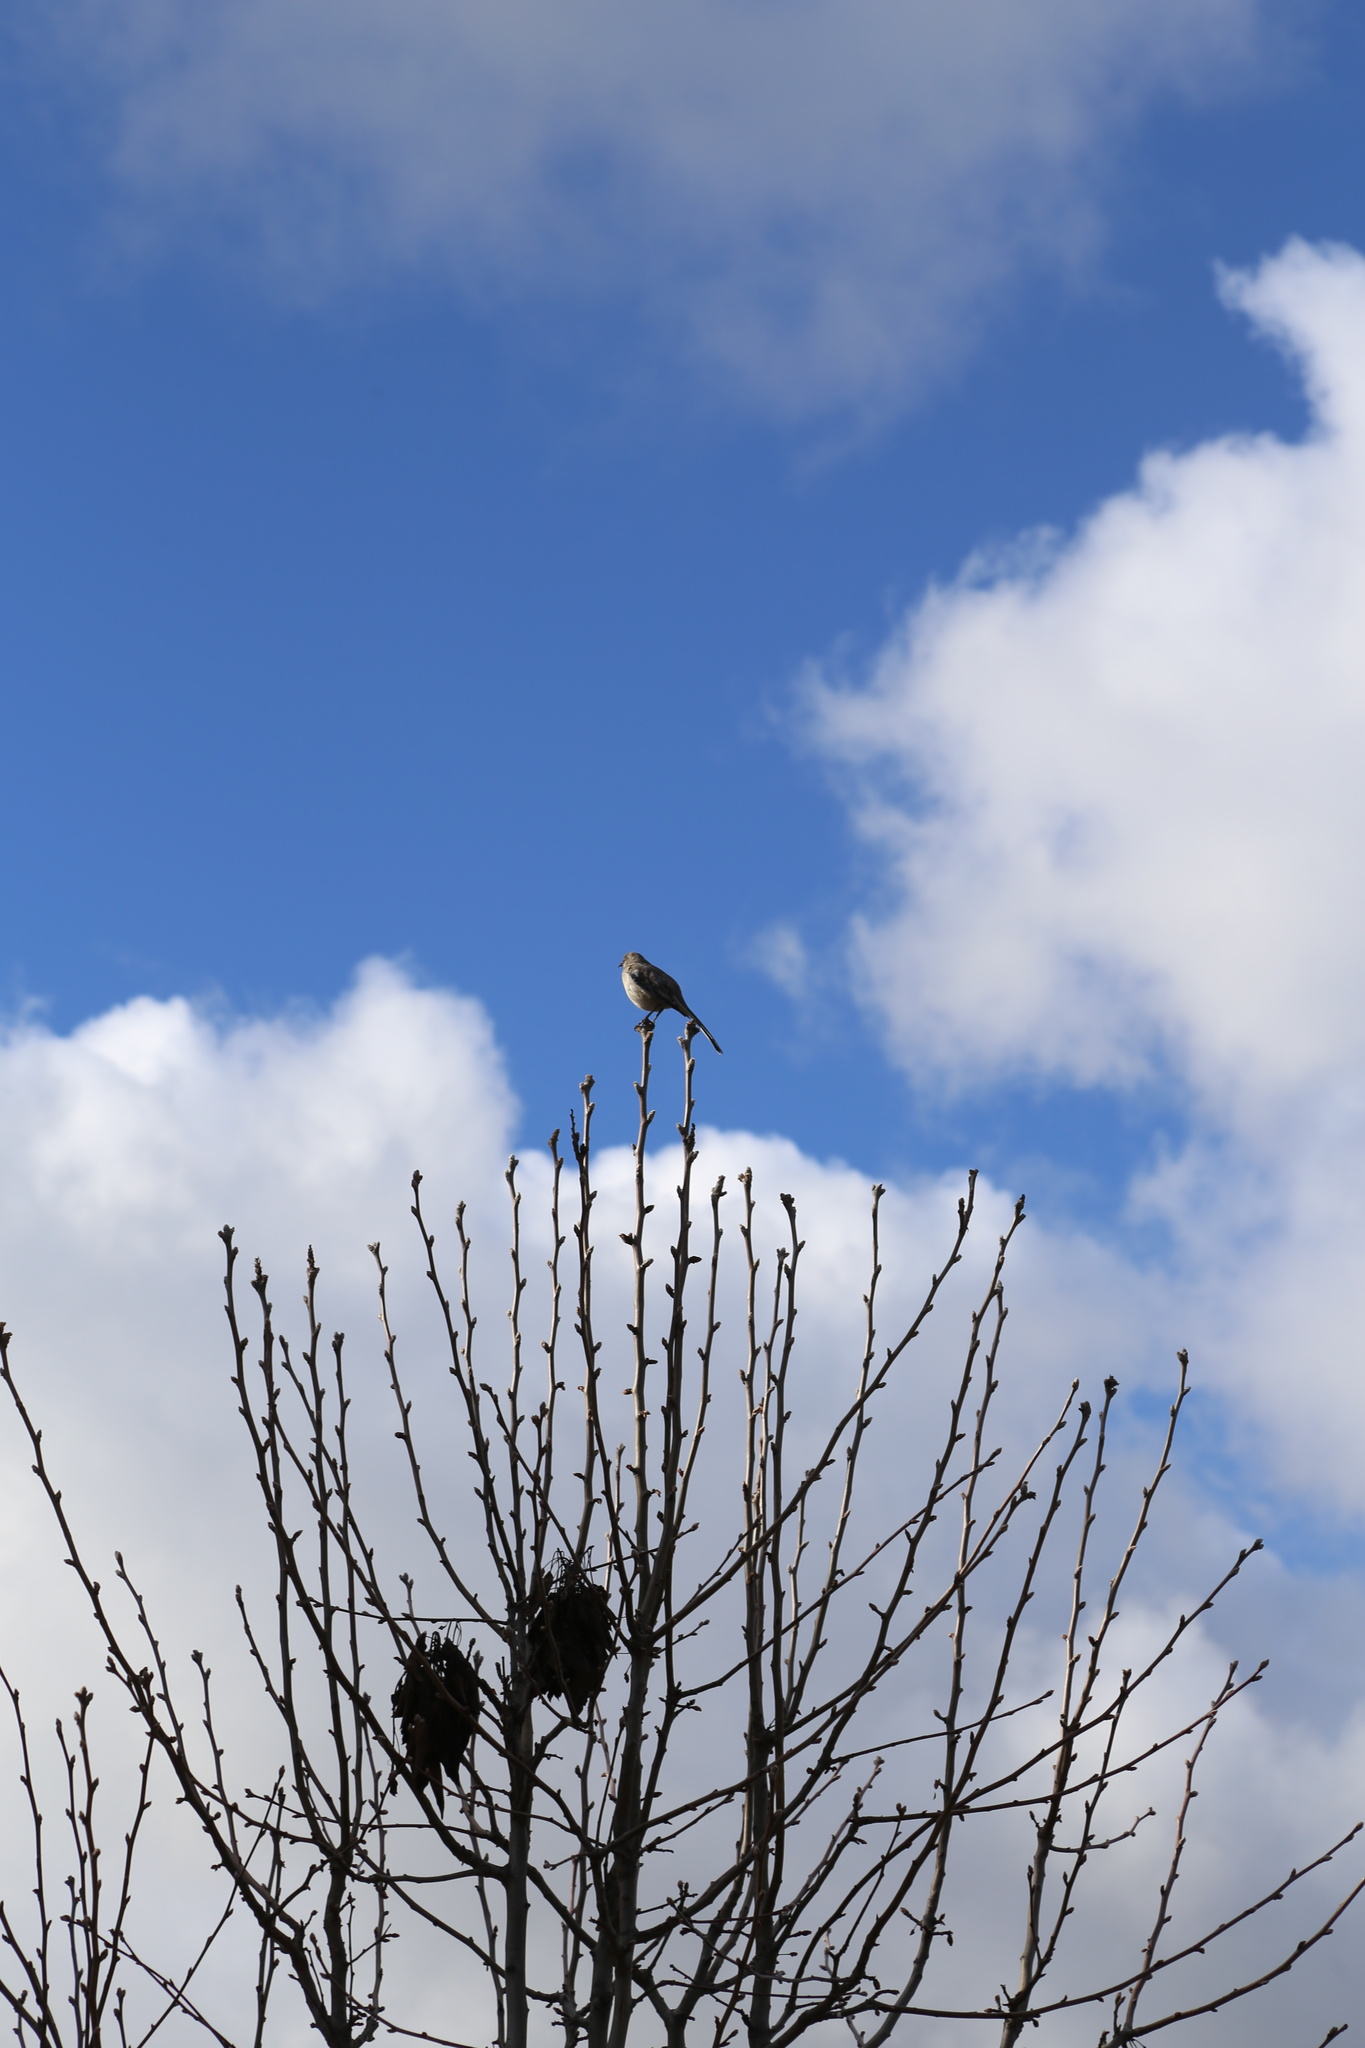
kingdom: Animalia
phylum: Chordata
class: Aves
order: Passeriformes
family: Passerellidae
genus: Zonotrichia
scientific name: Zonotrichia leucophrys
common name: White-crowned sparrow
